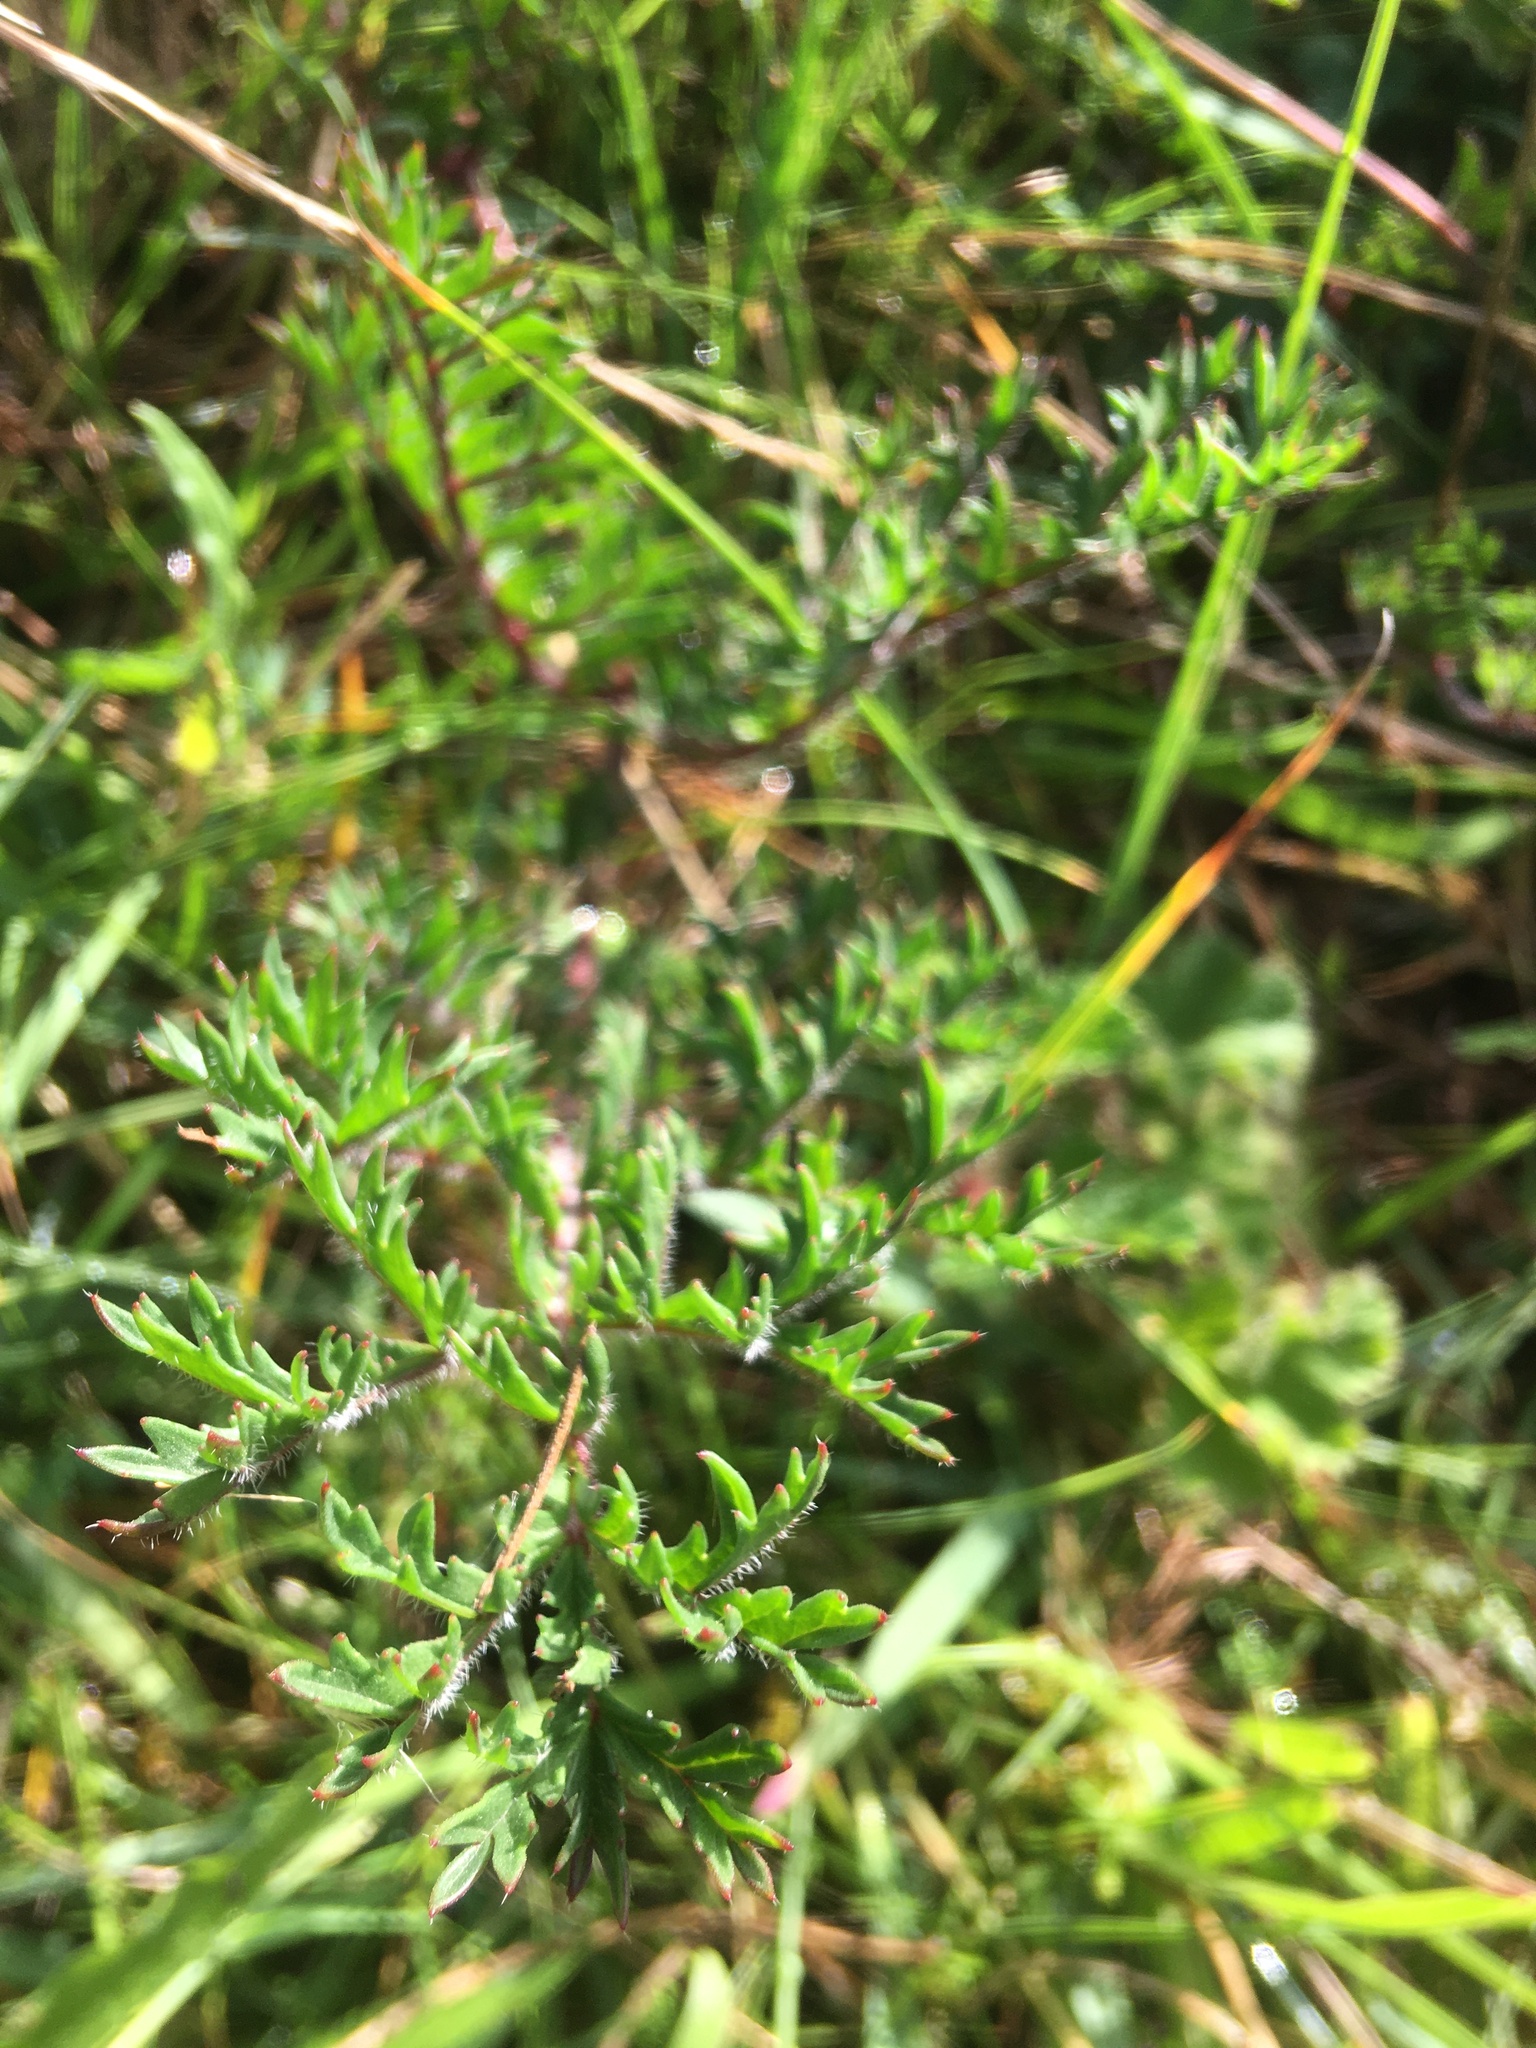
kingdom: Plantae
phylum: Tracheophyta
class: Magnoliopsida
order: Geraniales
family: Geraniaceae
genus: Pelargonium
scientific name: Pelargonium triste
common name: Night-scent pelargonium
